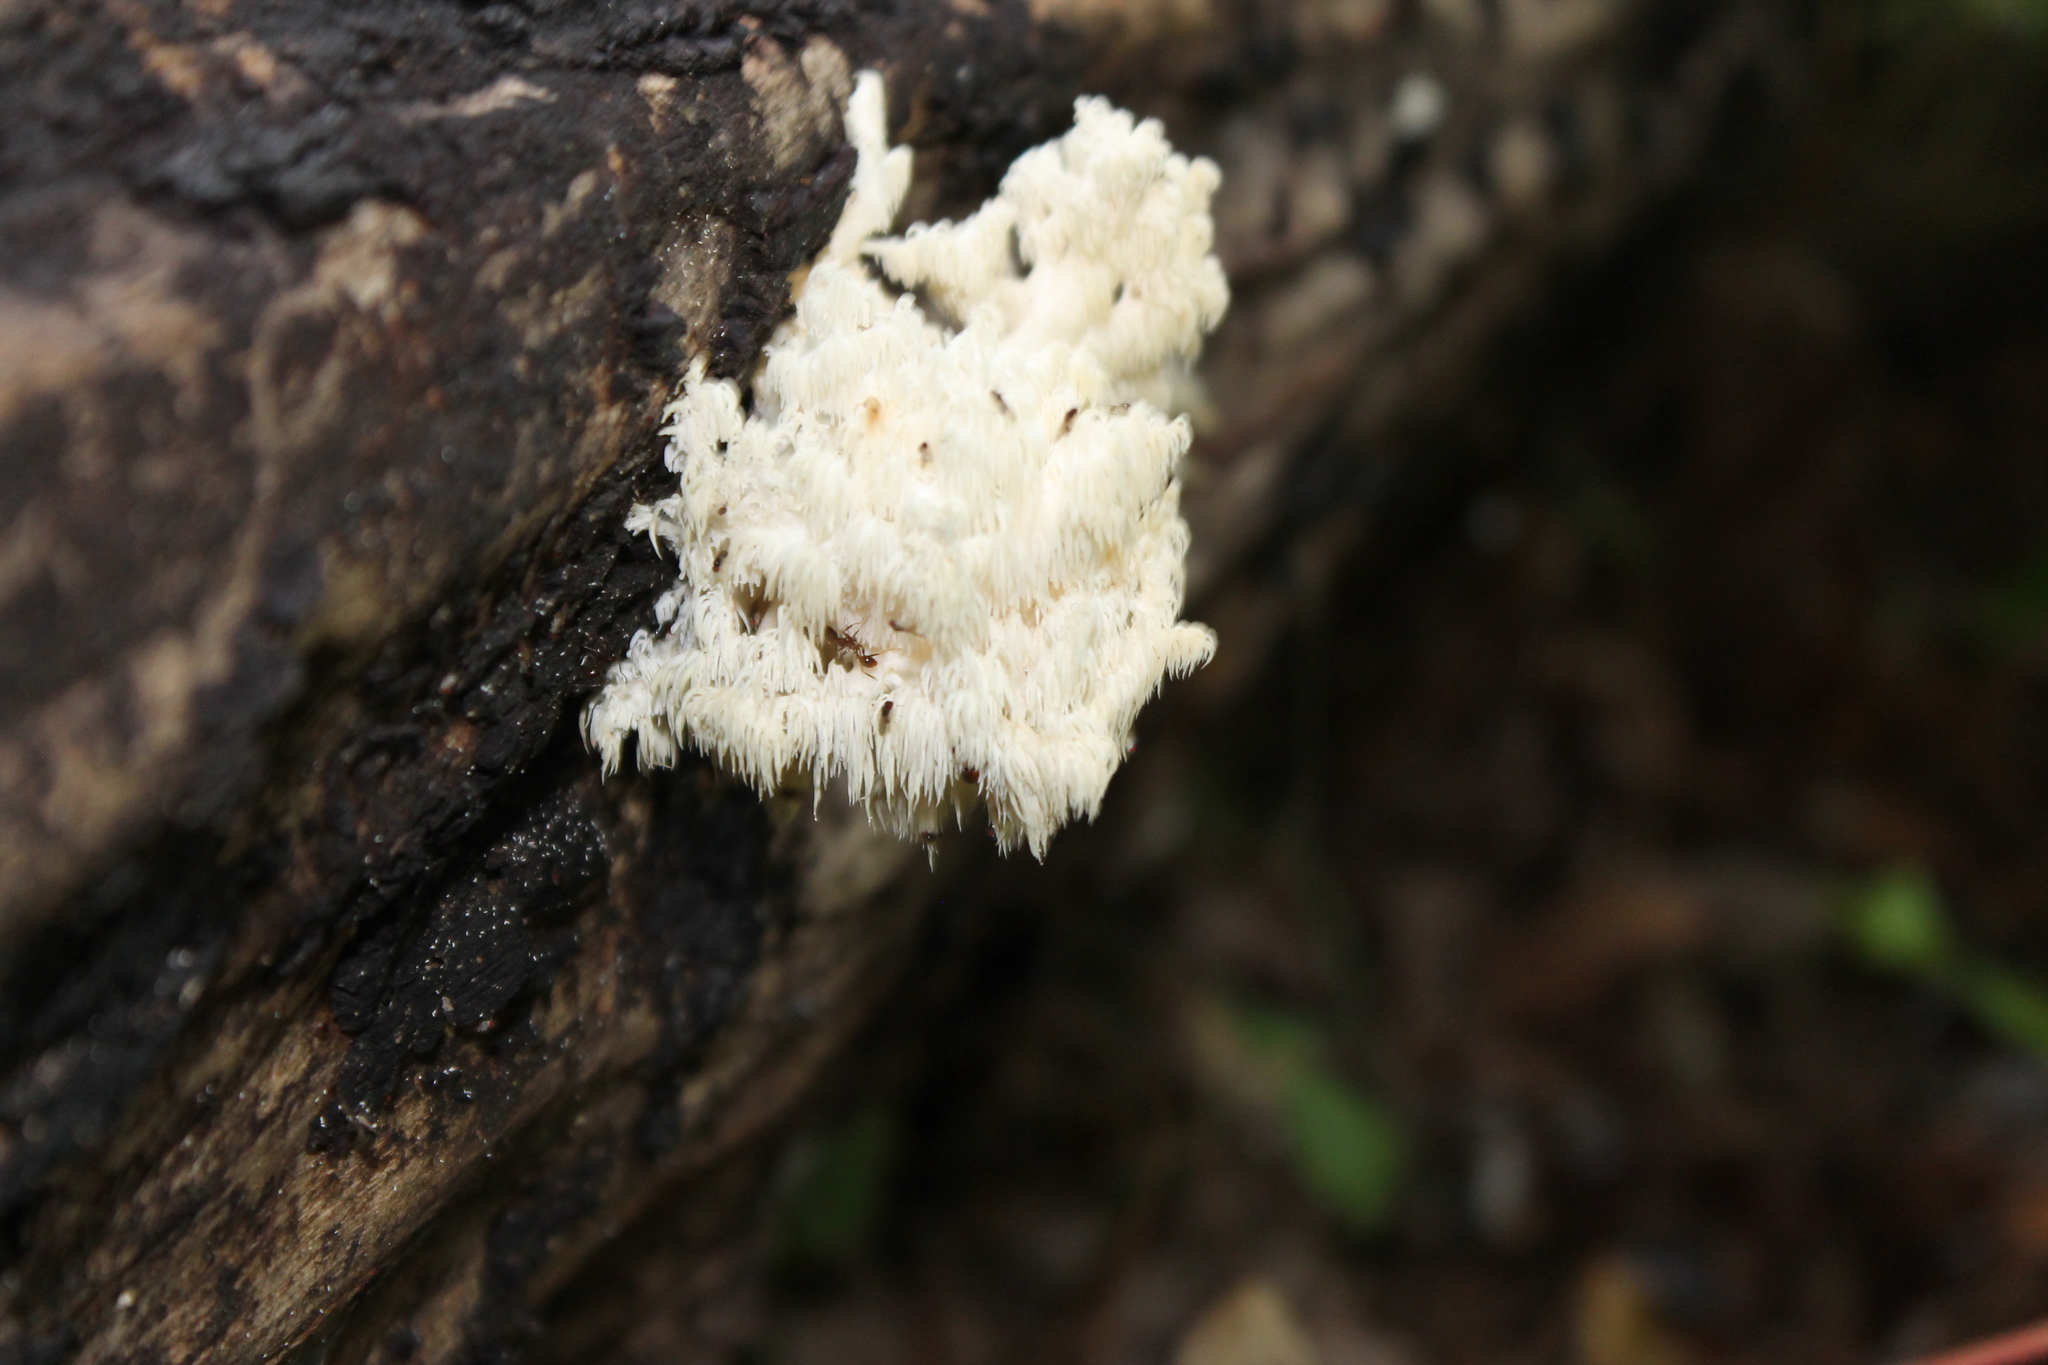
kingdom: Fungi
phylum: Basidiomycota
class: Agaricomycetes
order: Russulales
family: Hericiaceae
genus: Hericium
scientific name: Hericium coralloides
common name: Coral tooth
